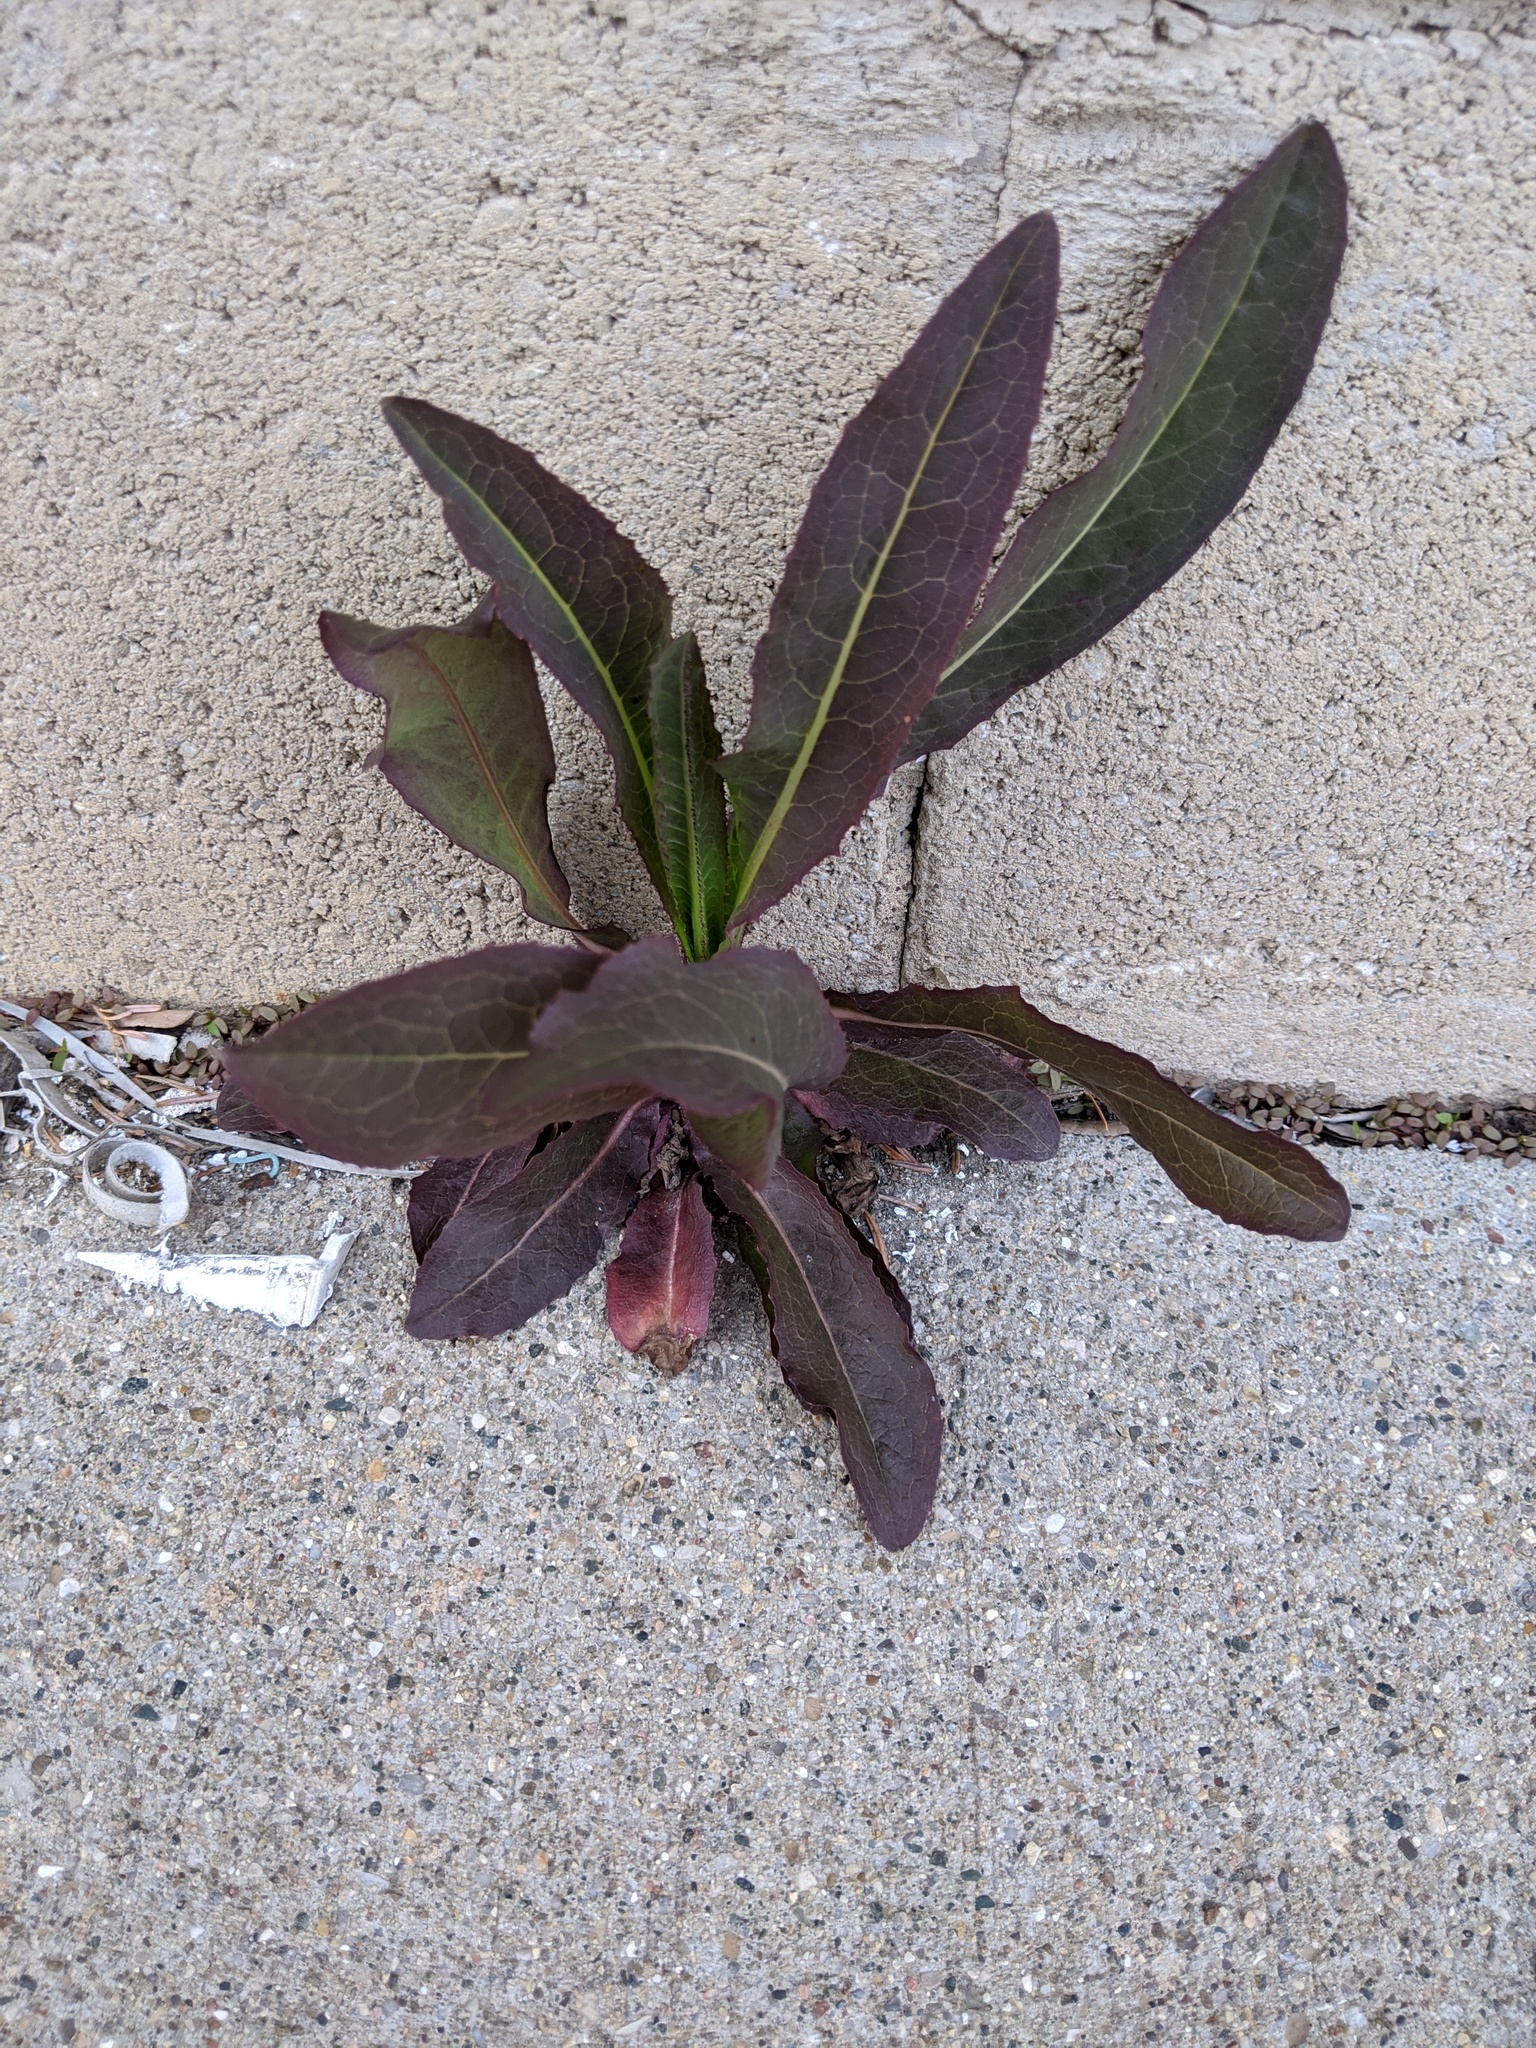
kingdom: Plantae
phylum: Tracheophyta
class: Magnoliopsida
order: Asterales
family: Asteraceae
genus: Lactuca
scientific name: Lactuca serriola
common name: Prickly lettuce
